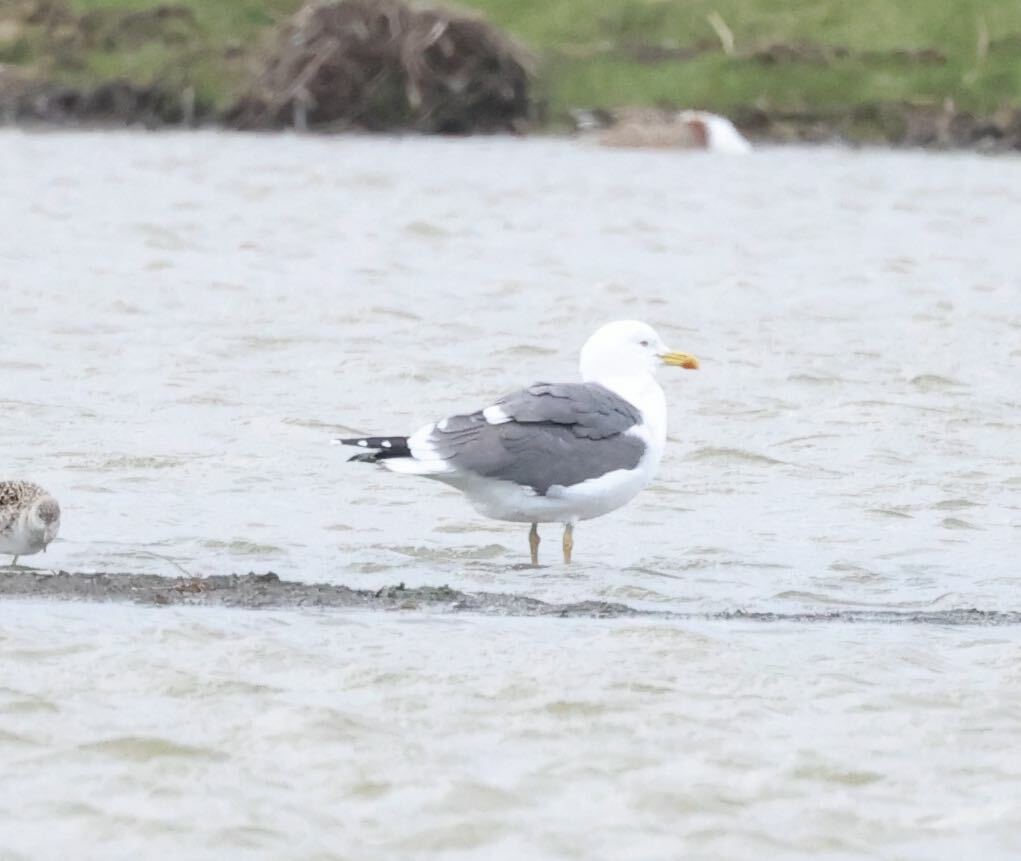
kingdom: Animalia
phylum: Chordata
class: Aves
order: Charadriiformes
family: Laridae
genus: Larus
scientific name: Larus fuscus
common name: Lesser black-backed gull
